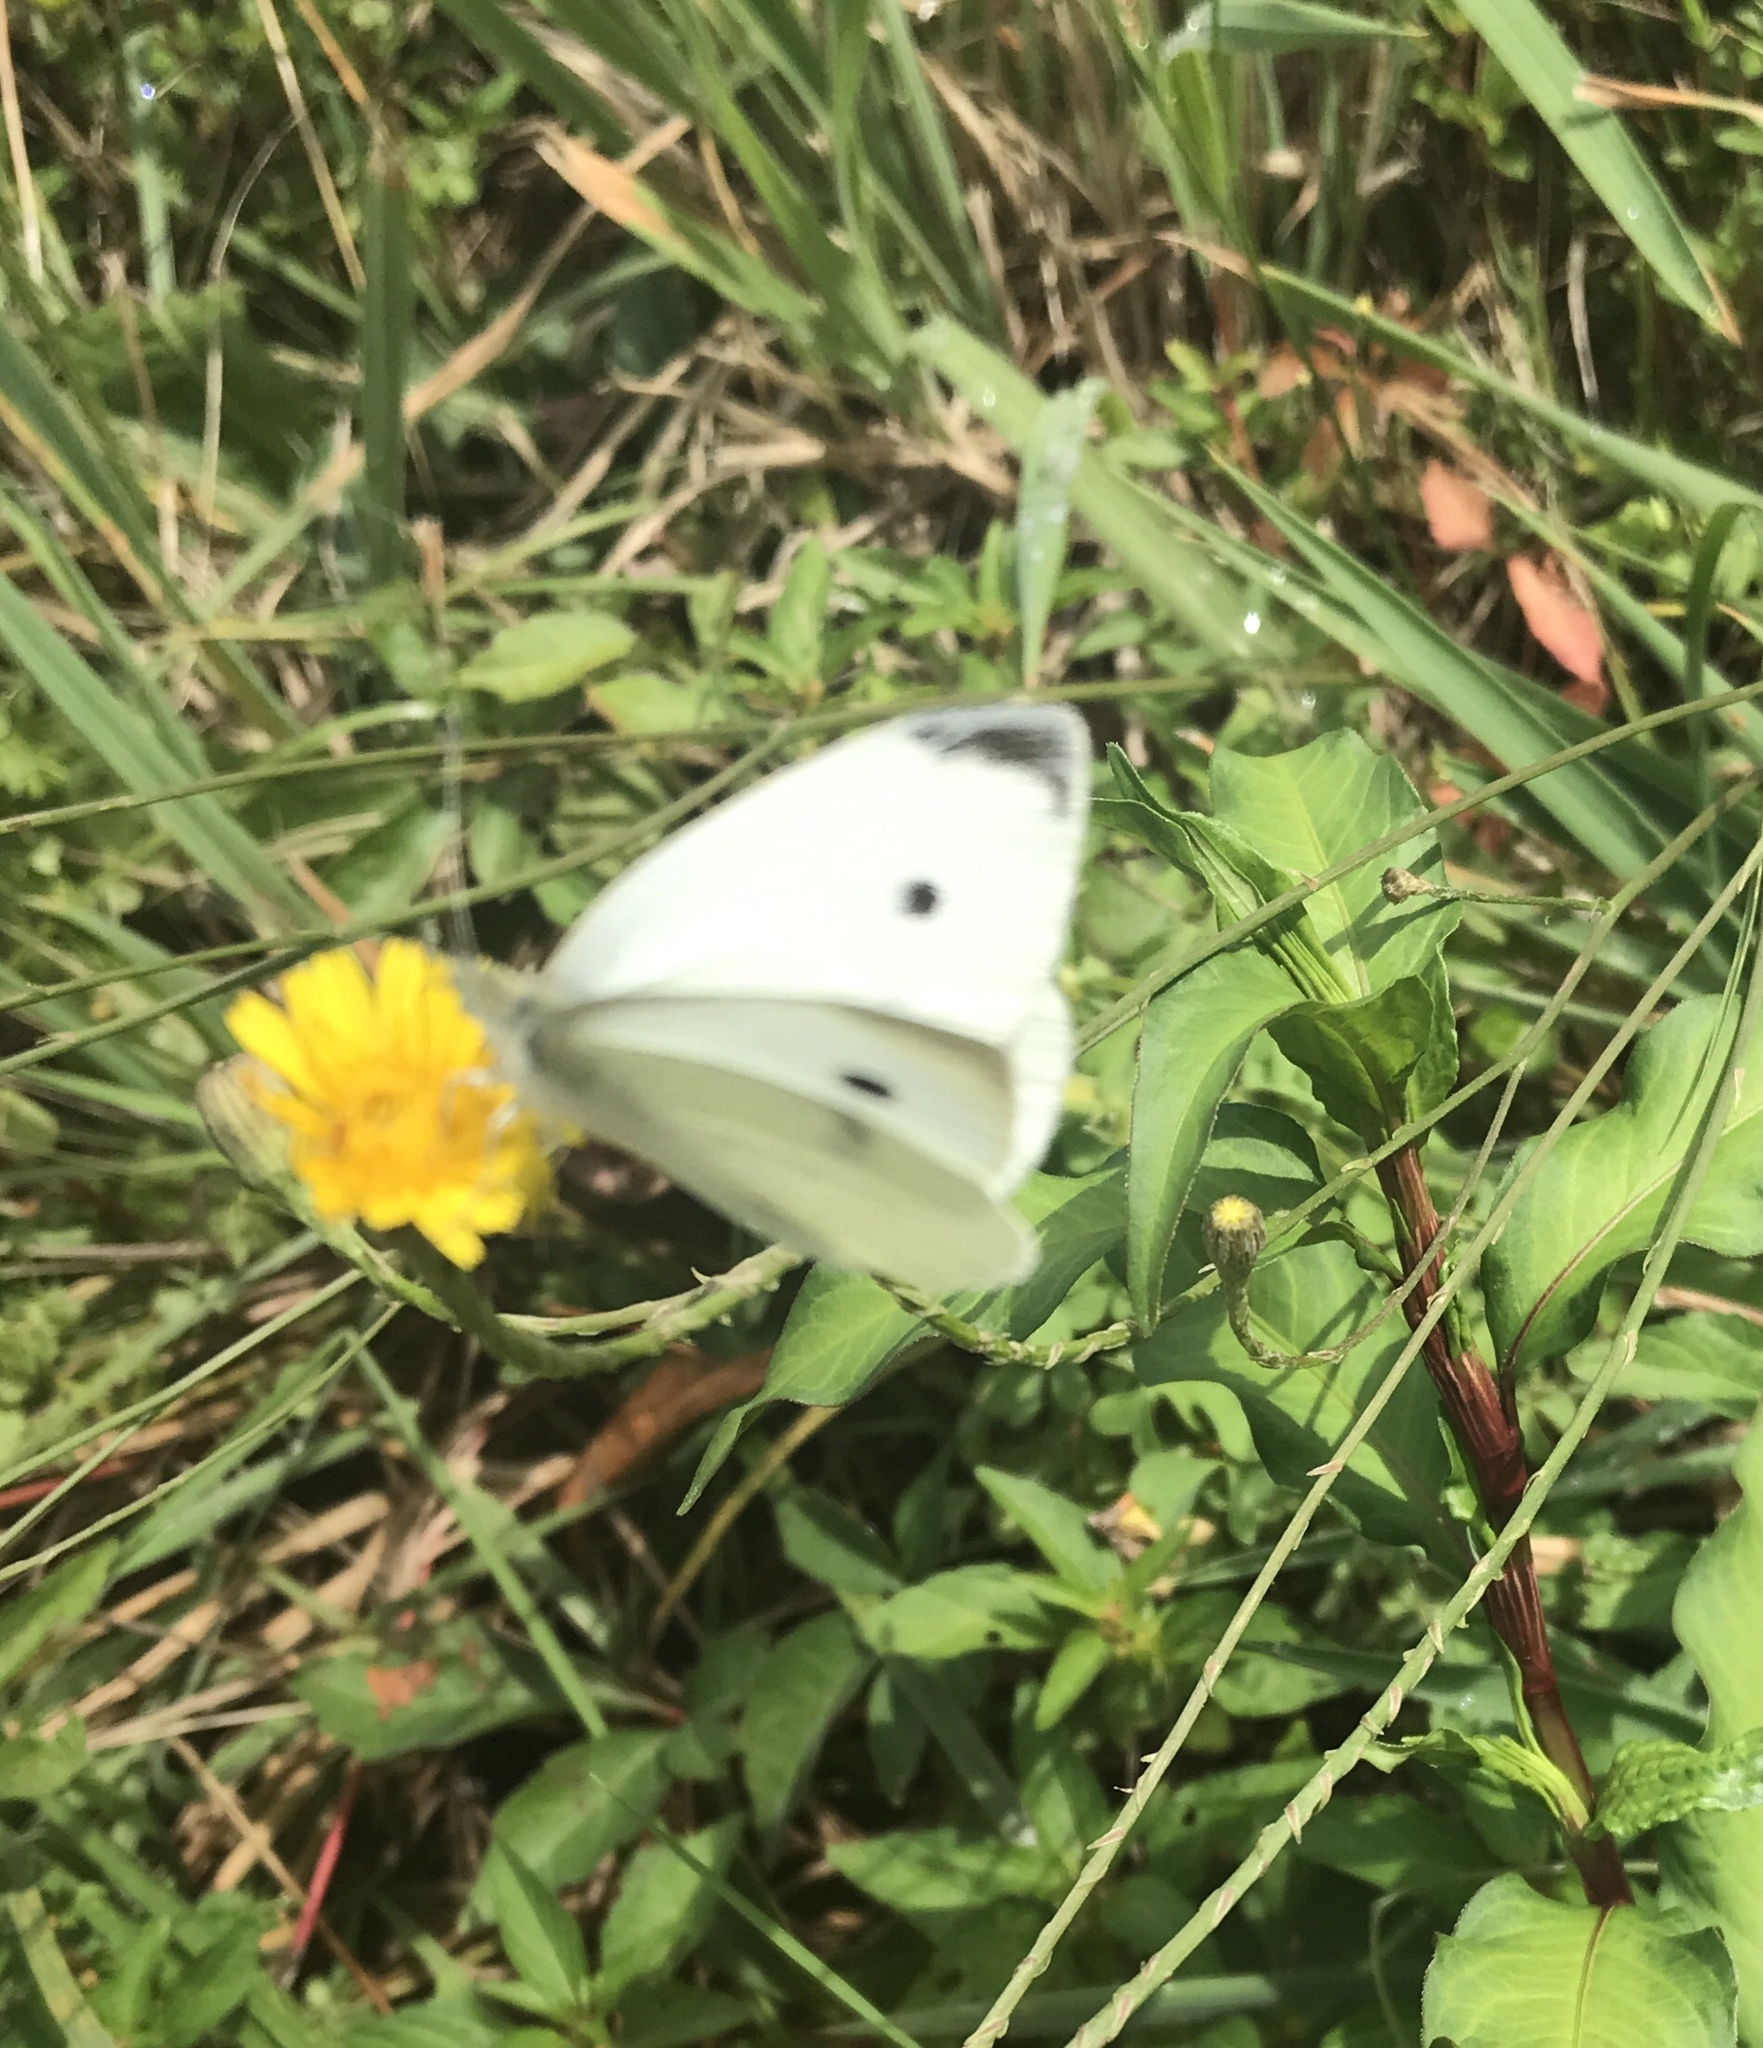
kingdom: Animalia
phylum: Arthropoda
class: Insecta
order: Lepidoptera
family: Pieridae
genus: Pieris
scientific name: Pieris rapae
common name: Small white
